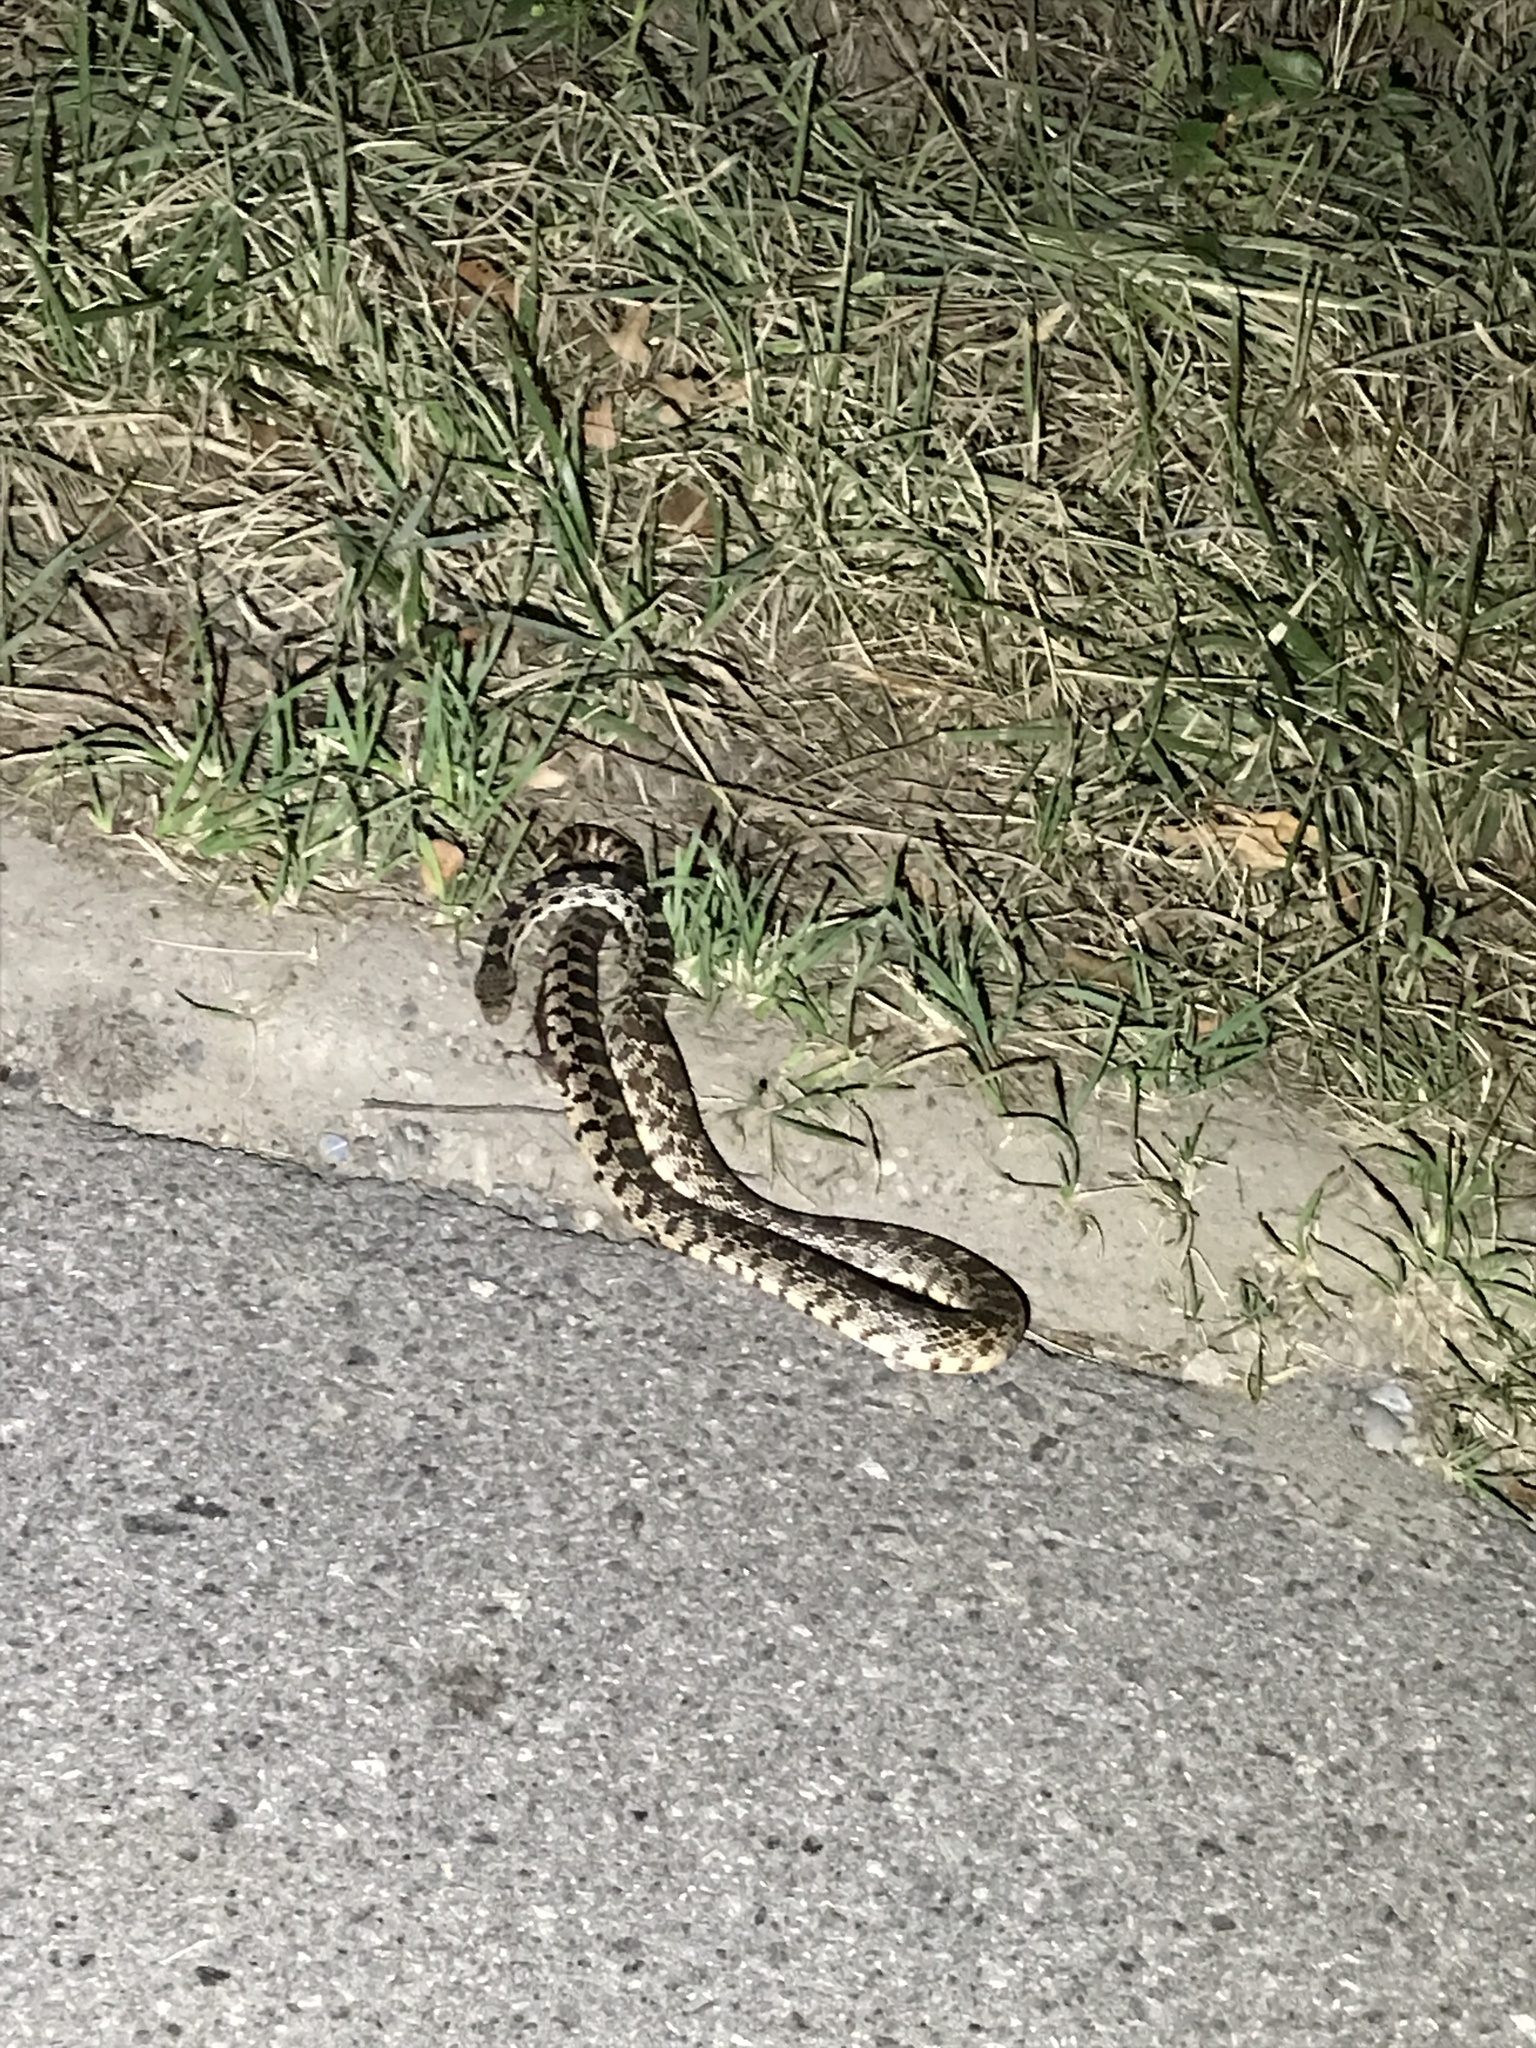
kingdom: Animalia
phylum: Chordata
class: Squamata
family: Colubridae
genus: Pituophis
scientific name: Pituophis catenifer
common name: Gopher snake
